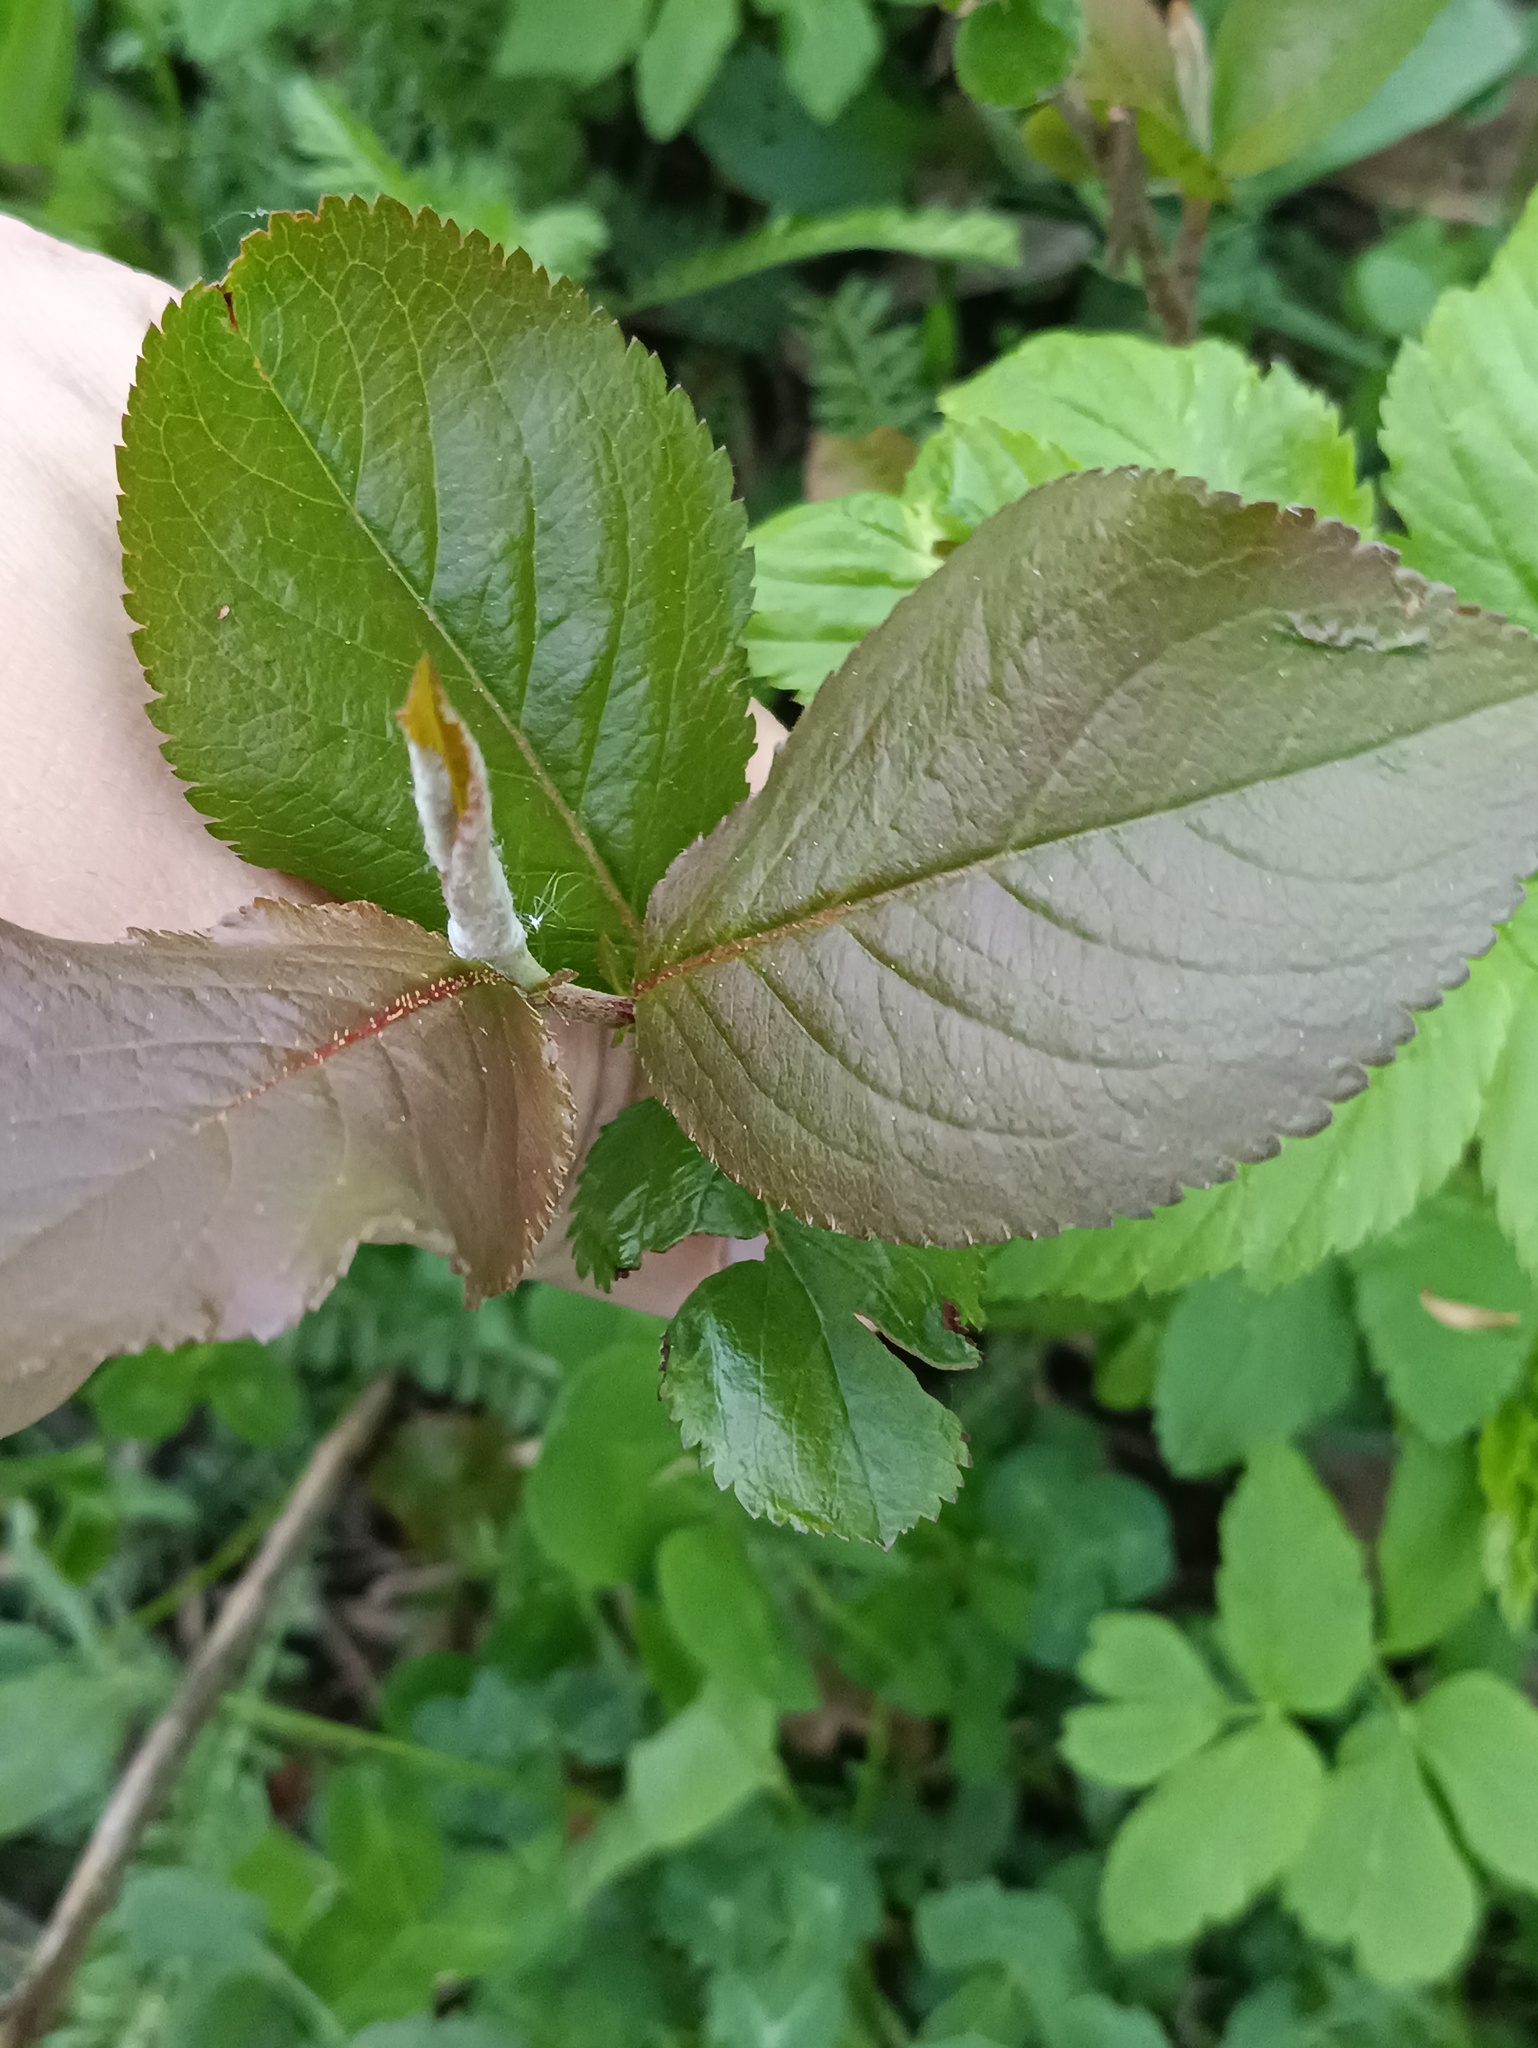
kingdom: Plantae
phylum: Tracheophyta
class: Magnoliopsida
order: Rosales
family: Rosaceae
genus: Sorbaronia
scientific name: Sorbaronia arsenii
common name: Arsène's mountain-ash
